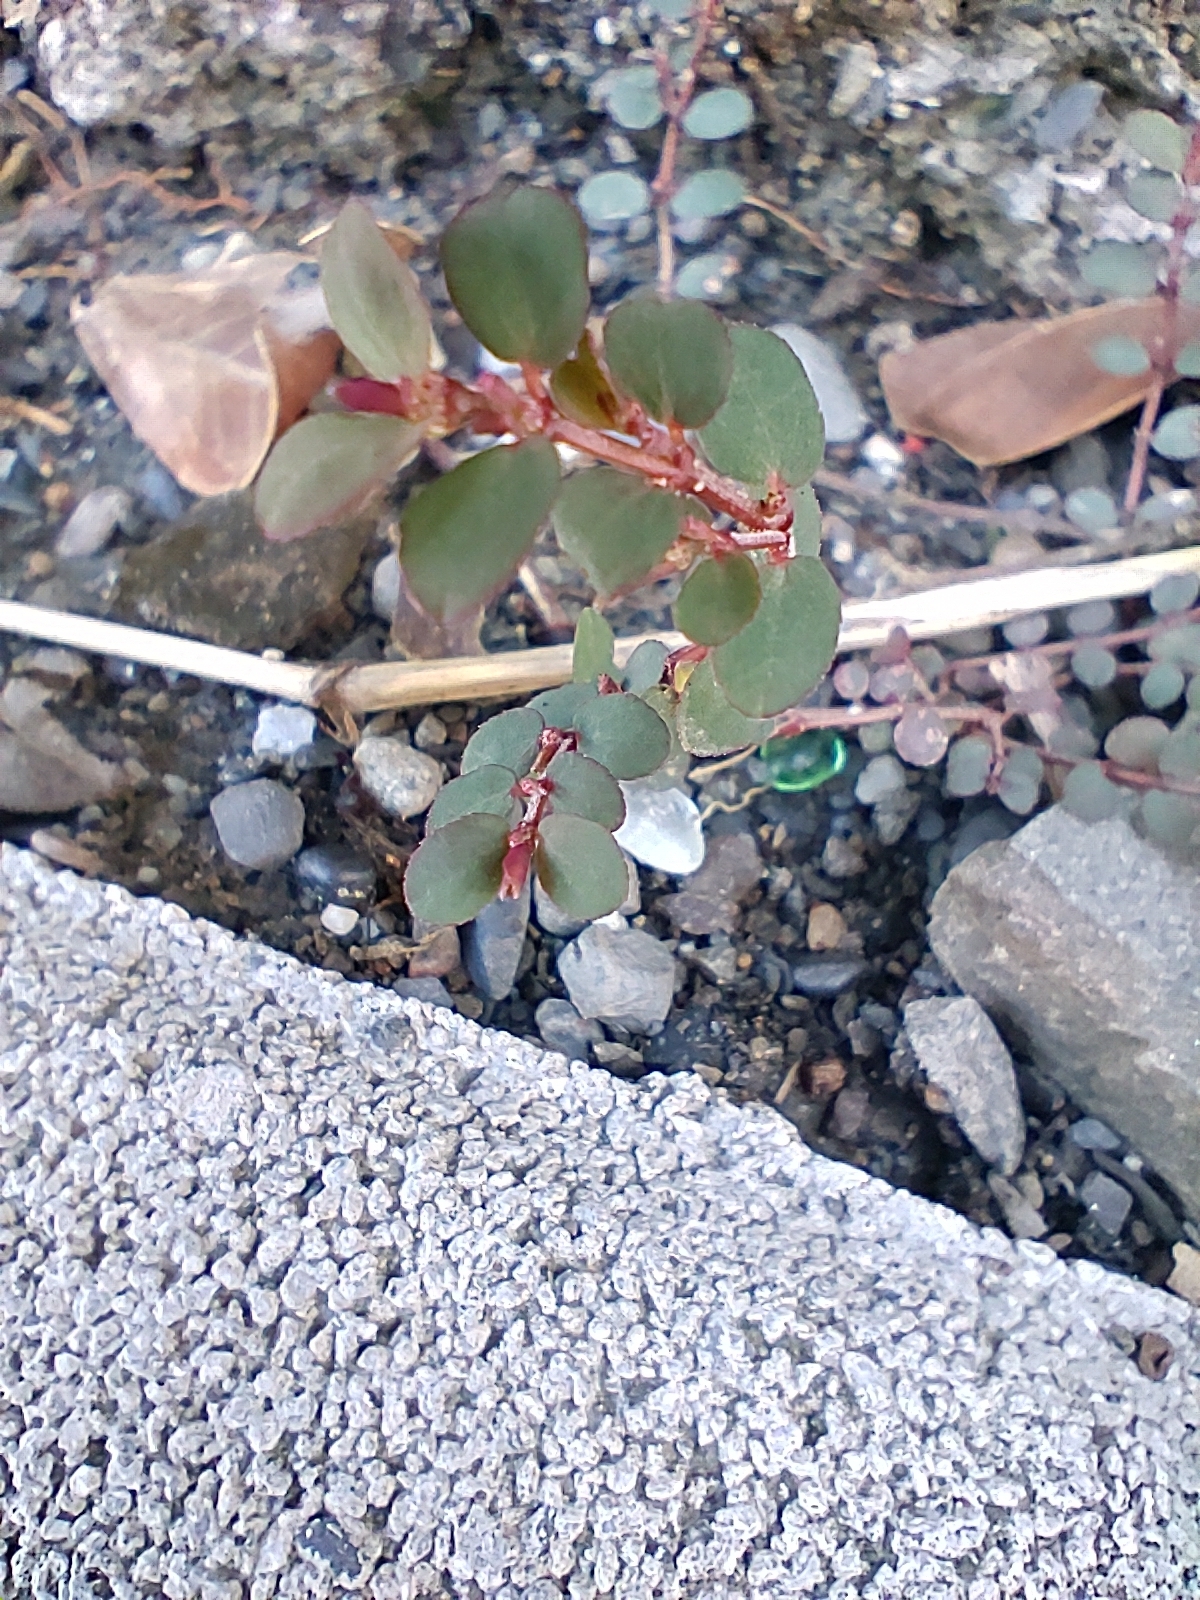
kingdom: Plantae
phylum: Tracheophyta
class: Magnoliopsida
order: Malpighiales
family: Euphorbiaceae
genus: Euphorbia
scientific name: Euphorbia prostrata
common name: Prostrate sandmat
